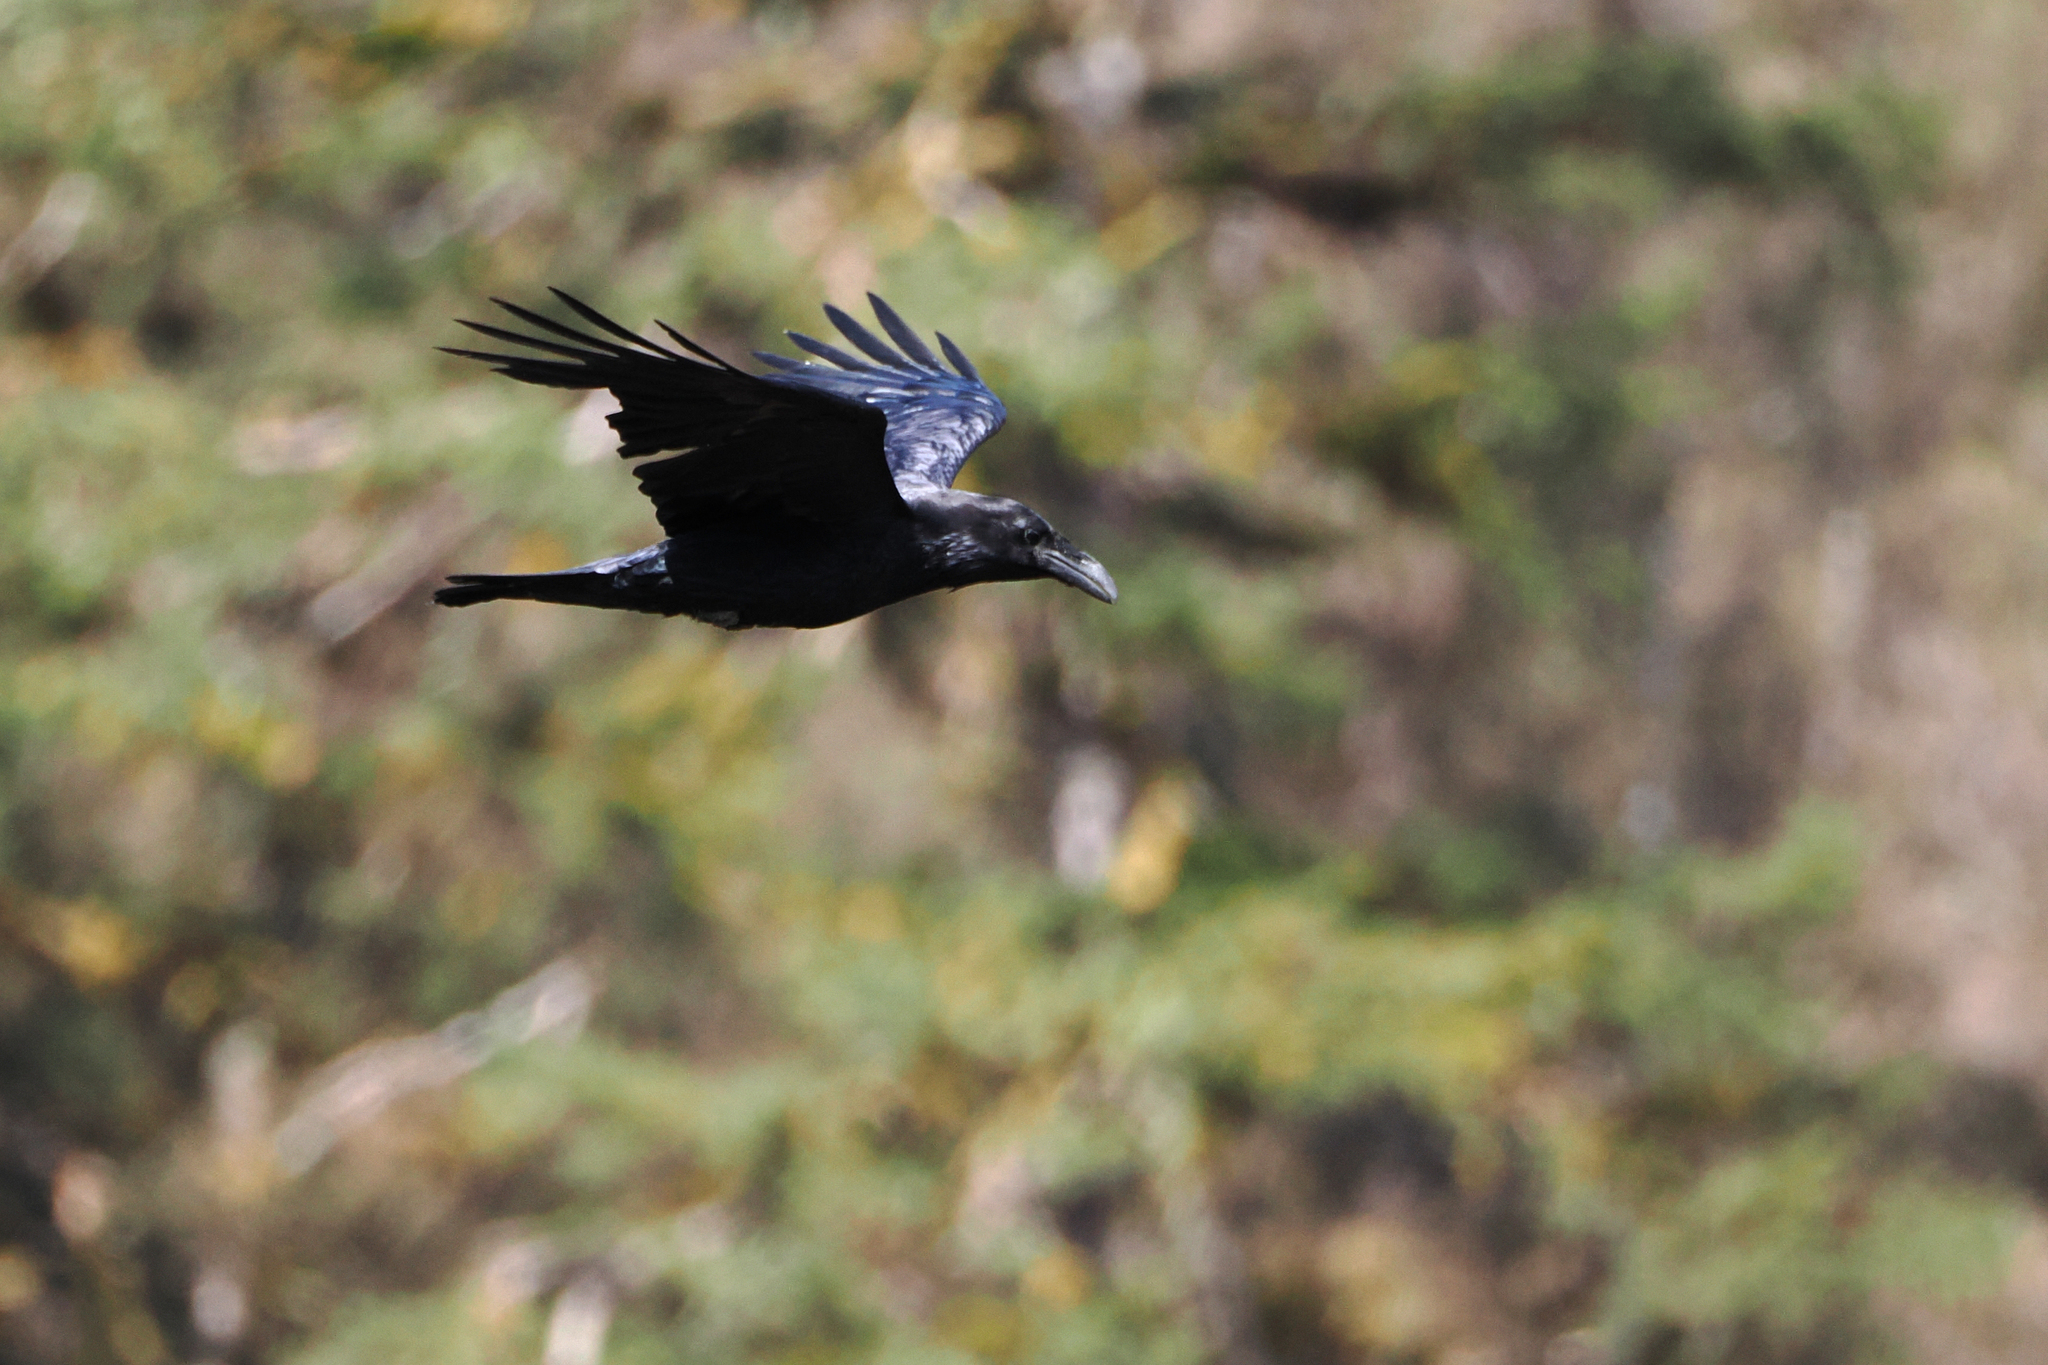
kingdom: Animalia
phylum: Chordata
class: Aves
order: Passeriformes
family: Corvidae
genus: Corvus
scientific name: Corvus corax
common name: Common raven
